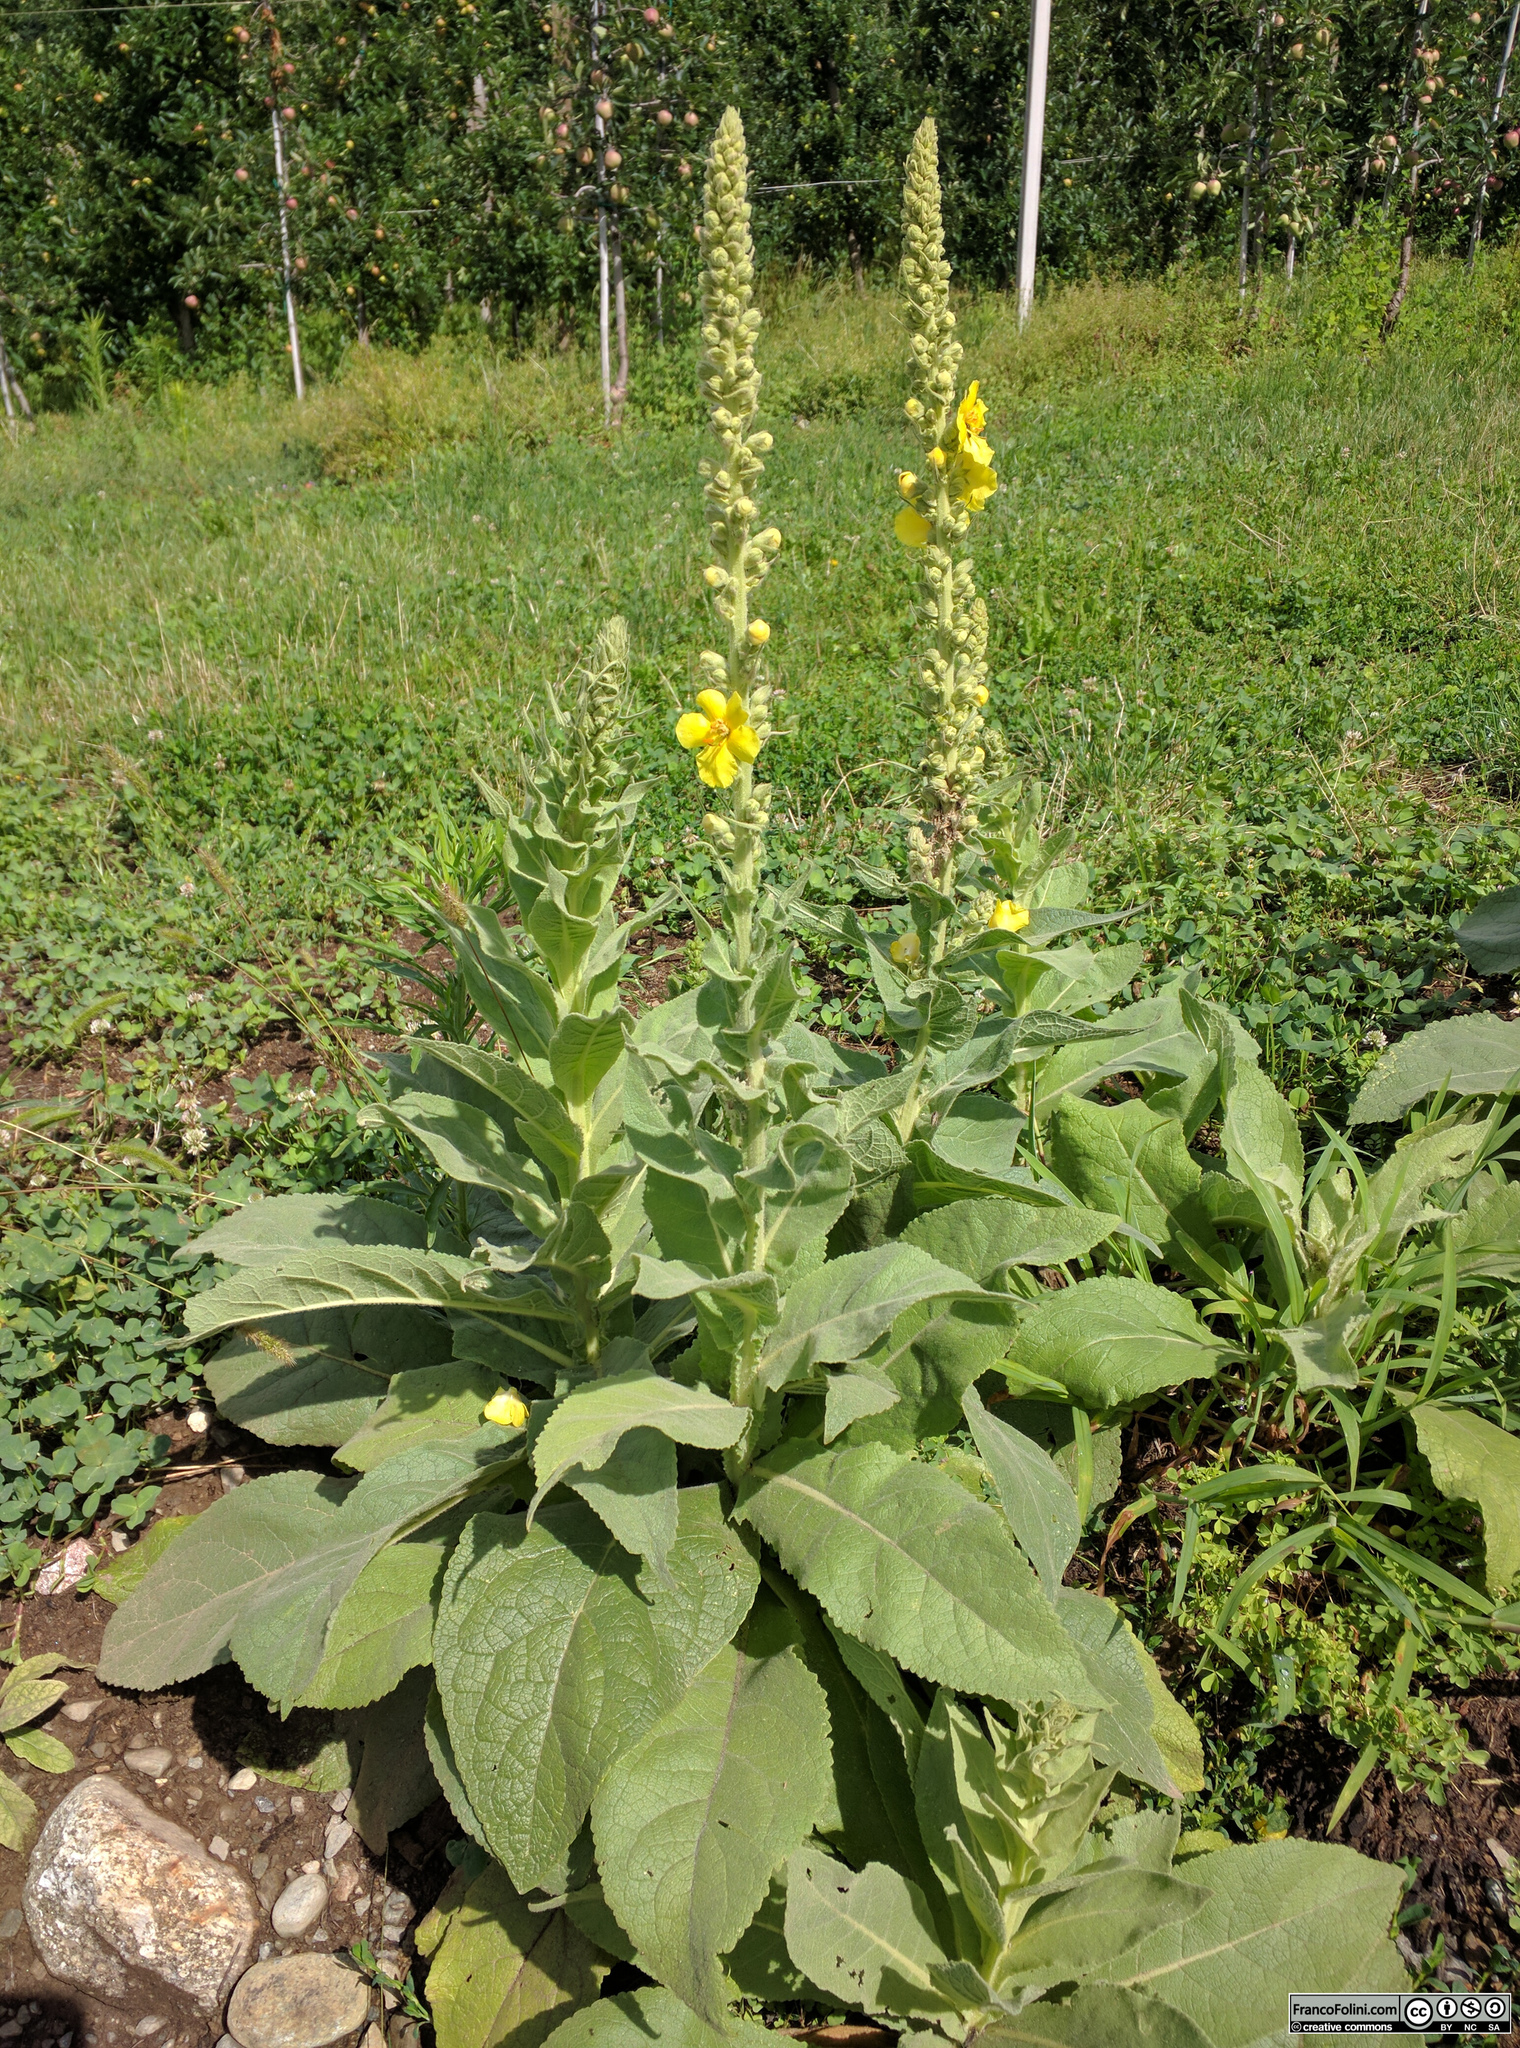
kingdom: Plantae
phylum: Tracheophyta
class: Magnoliopsida
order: Lamiales
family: Scrophulariaceae
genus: Verbascum
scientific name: Verbascum densiflorum
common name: Dense-flowered mullein
